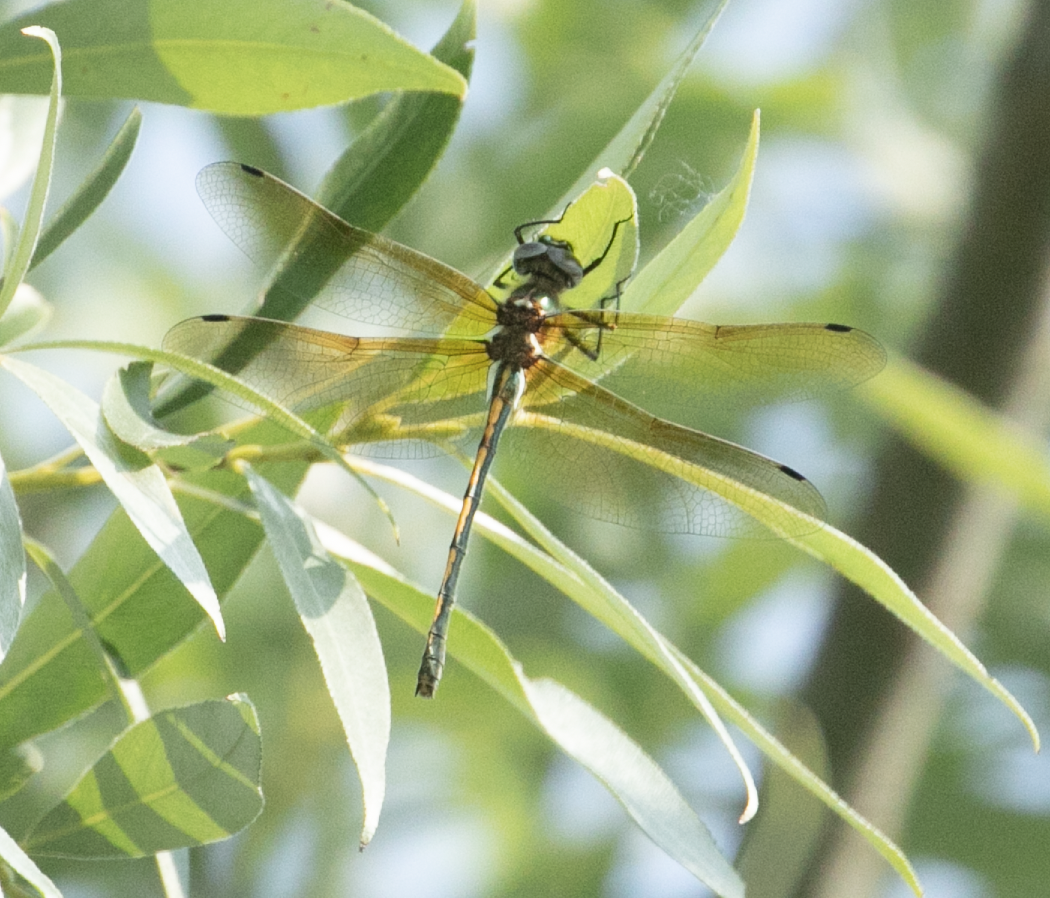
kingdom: Animalia
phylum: Arthropoda
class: Insecta
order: Odonata
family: Corduliidae
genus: Oxygastra
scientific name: Oxygastra curtisii
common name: Orange-spotted emerald
